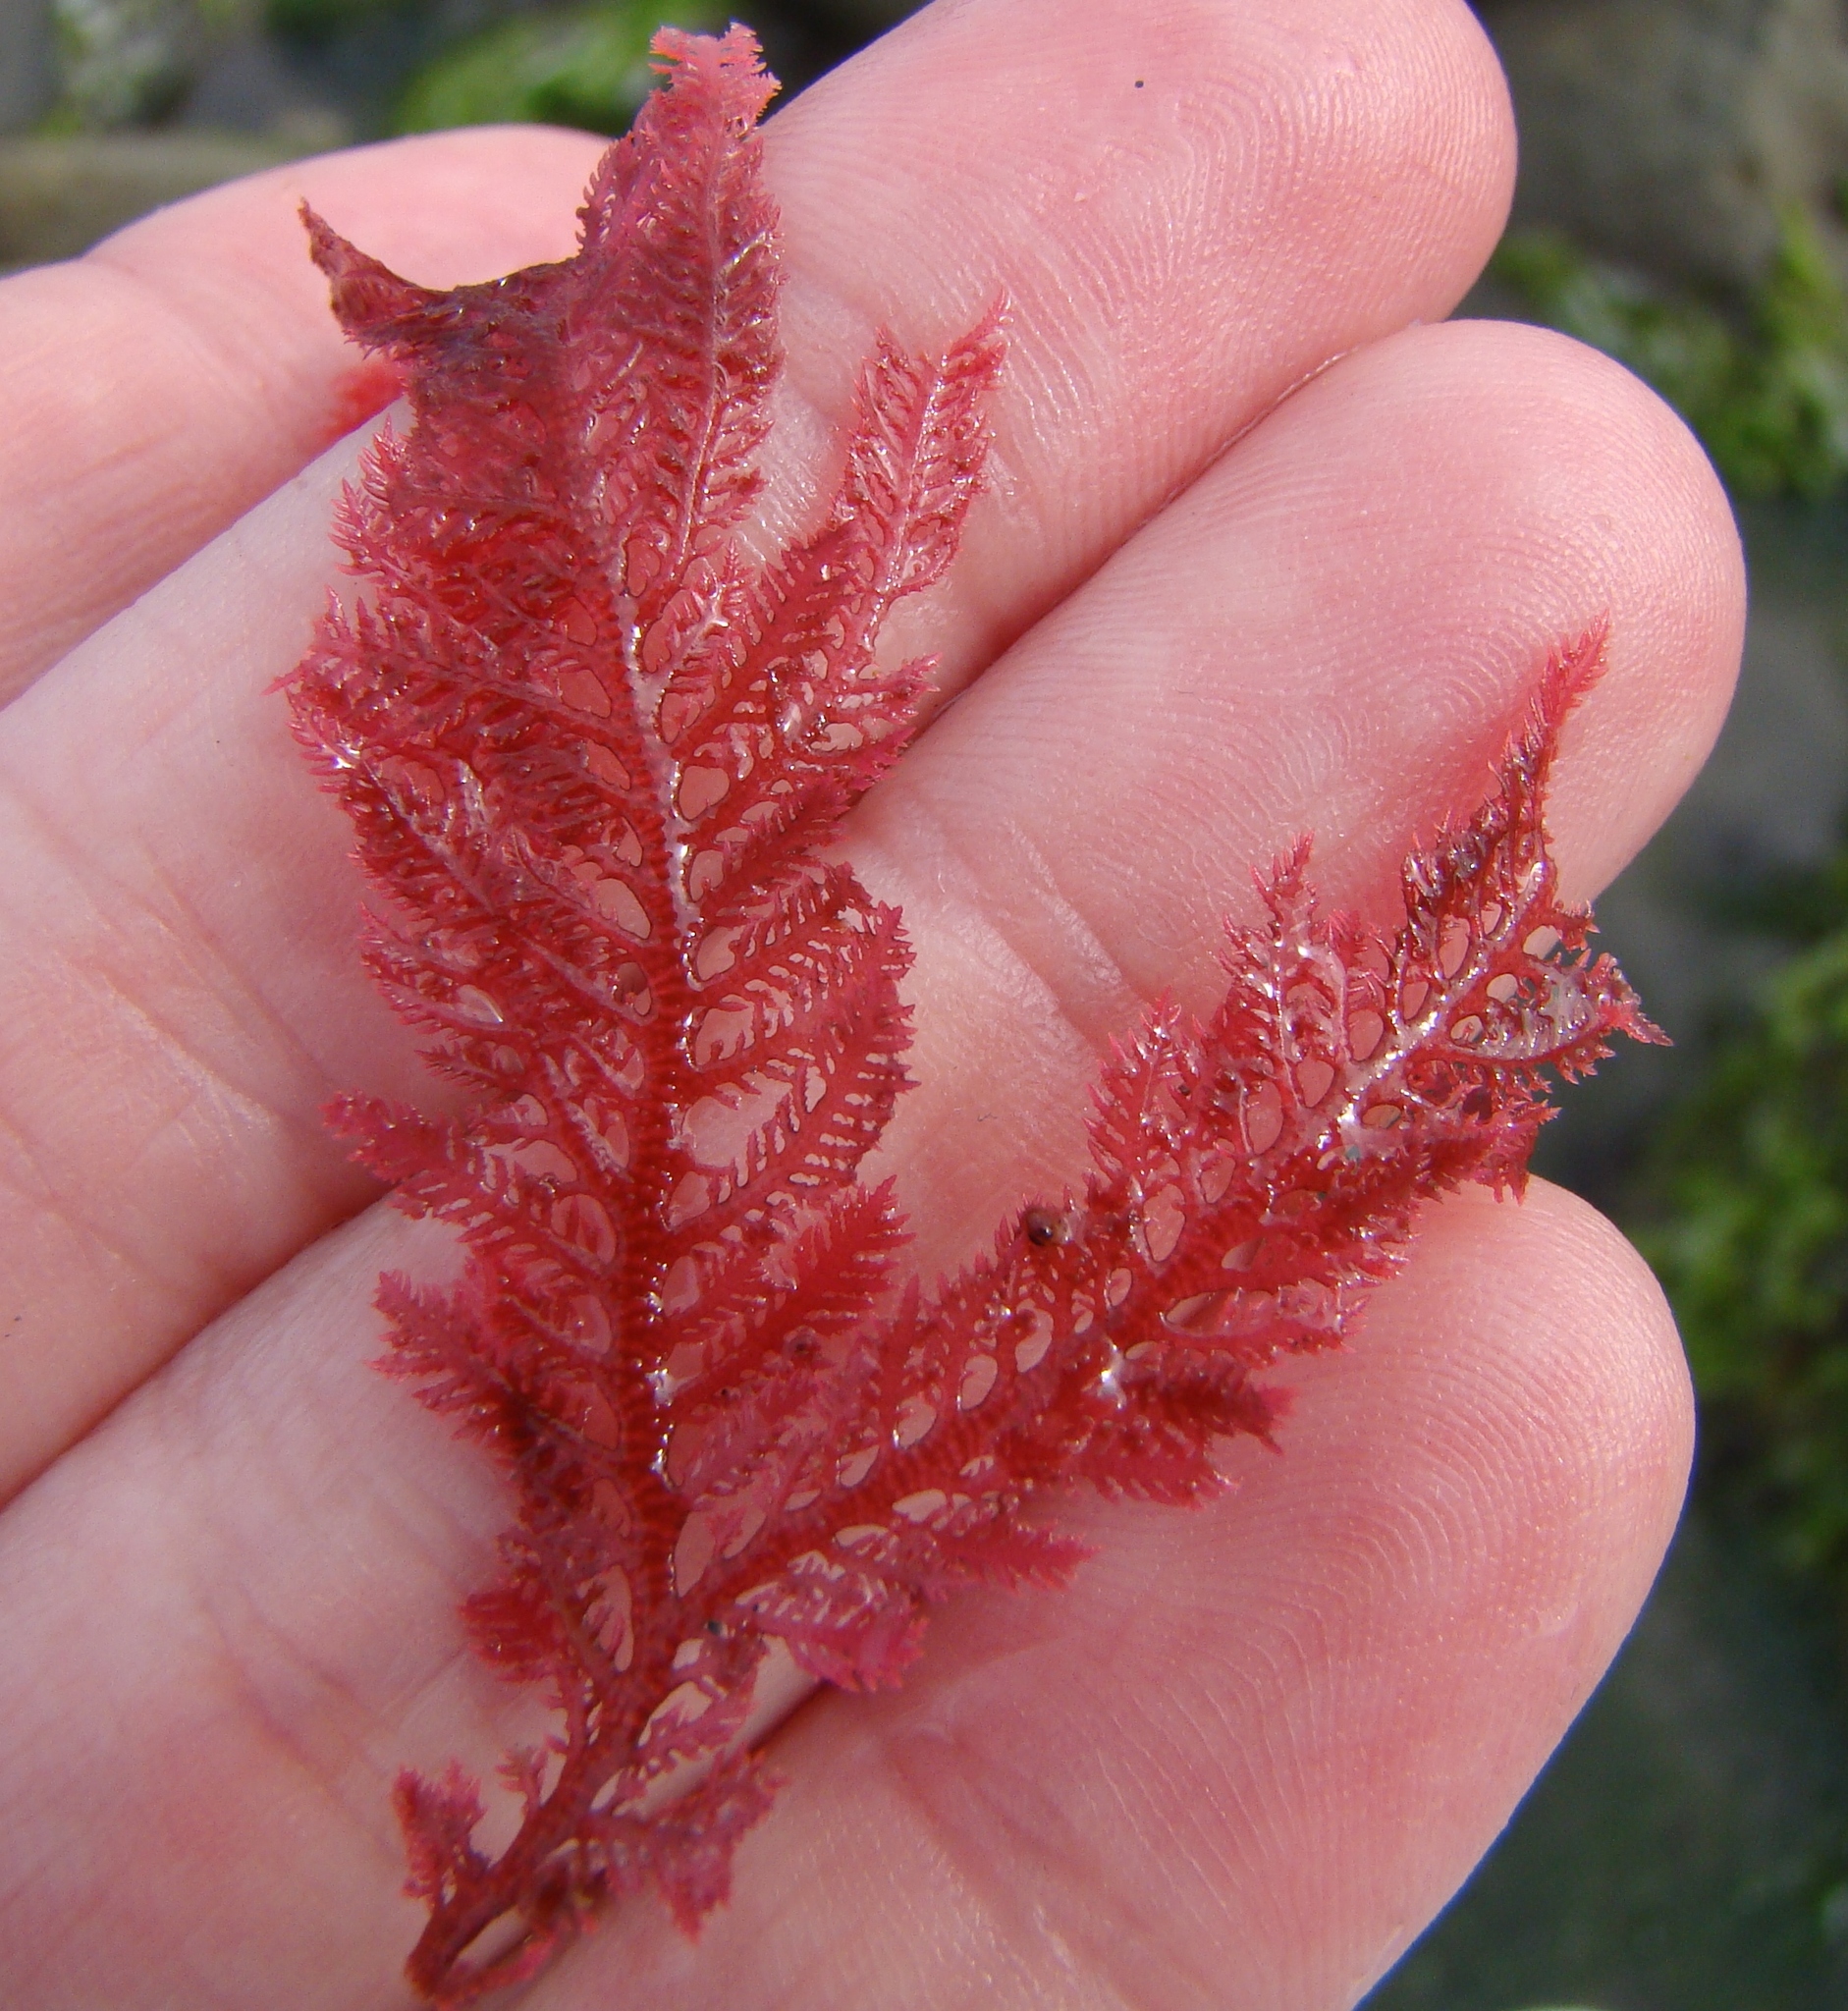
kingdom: Plantae
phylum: Rhodophyta
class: Florideophyceae
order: Ceramiales
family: Callithamniaceae
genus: Euptilota
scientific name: Euptilota formosissima
